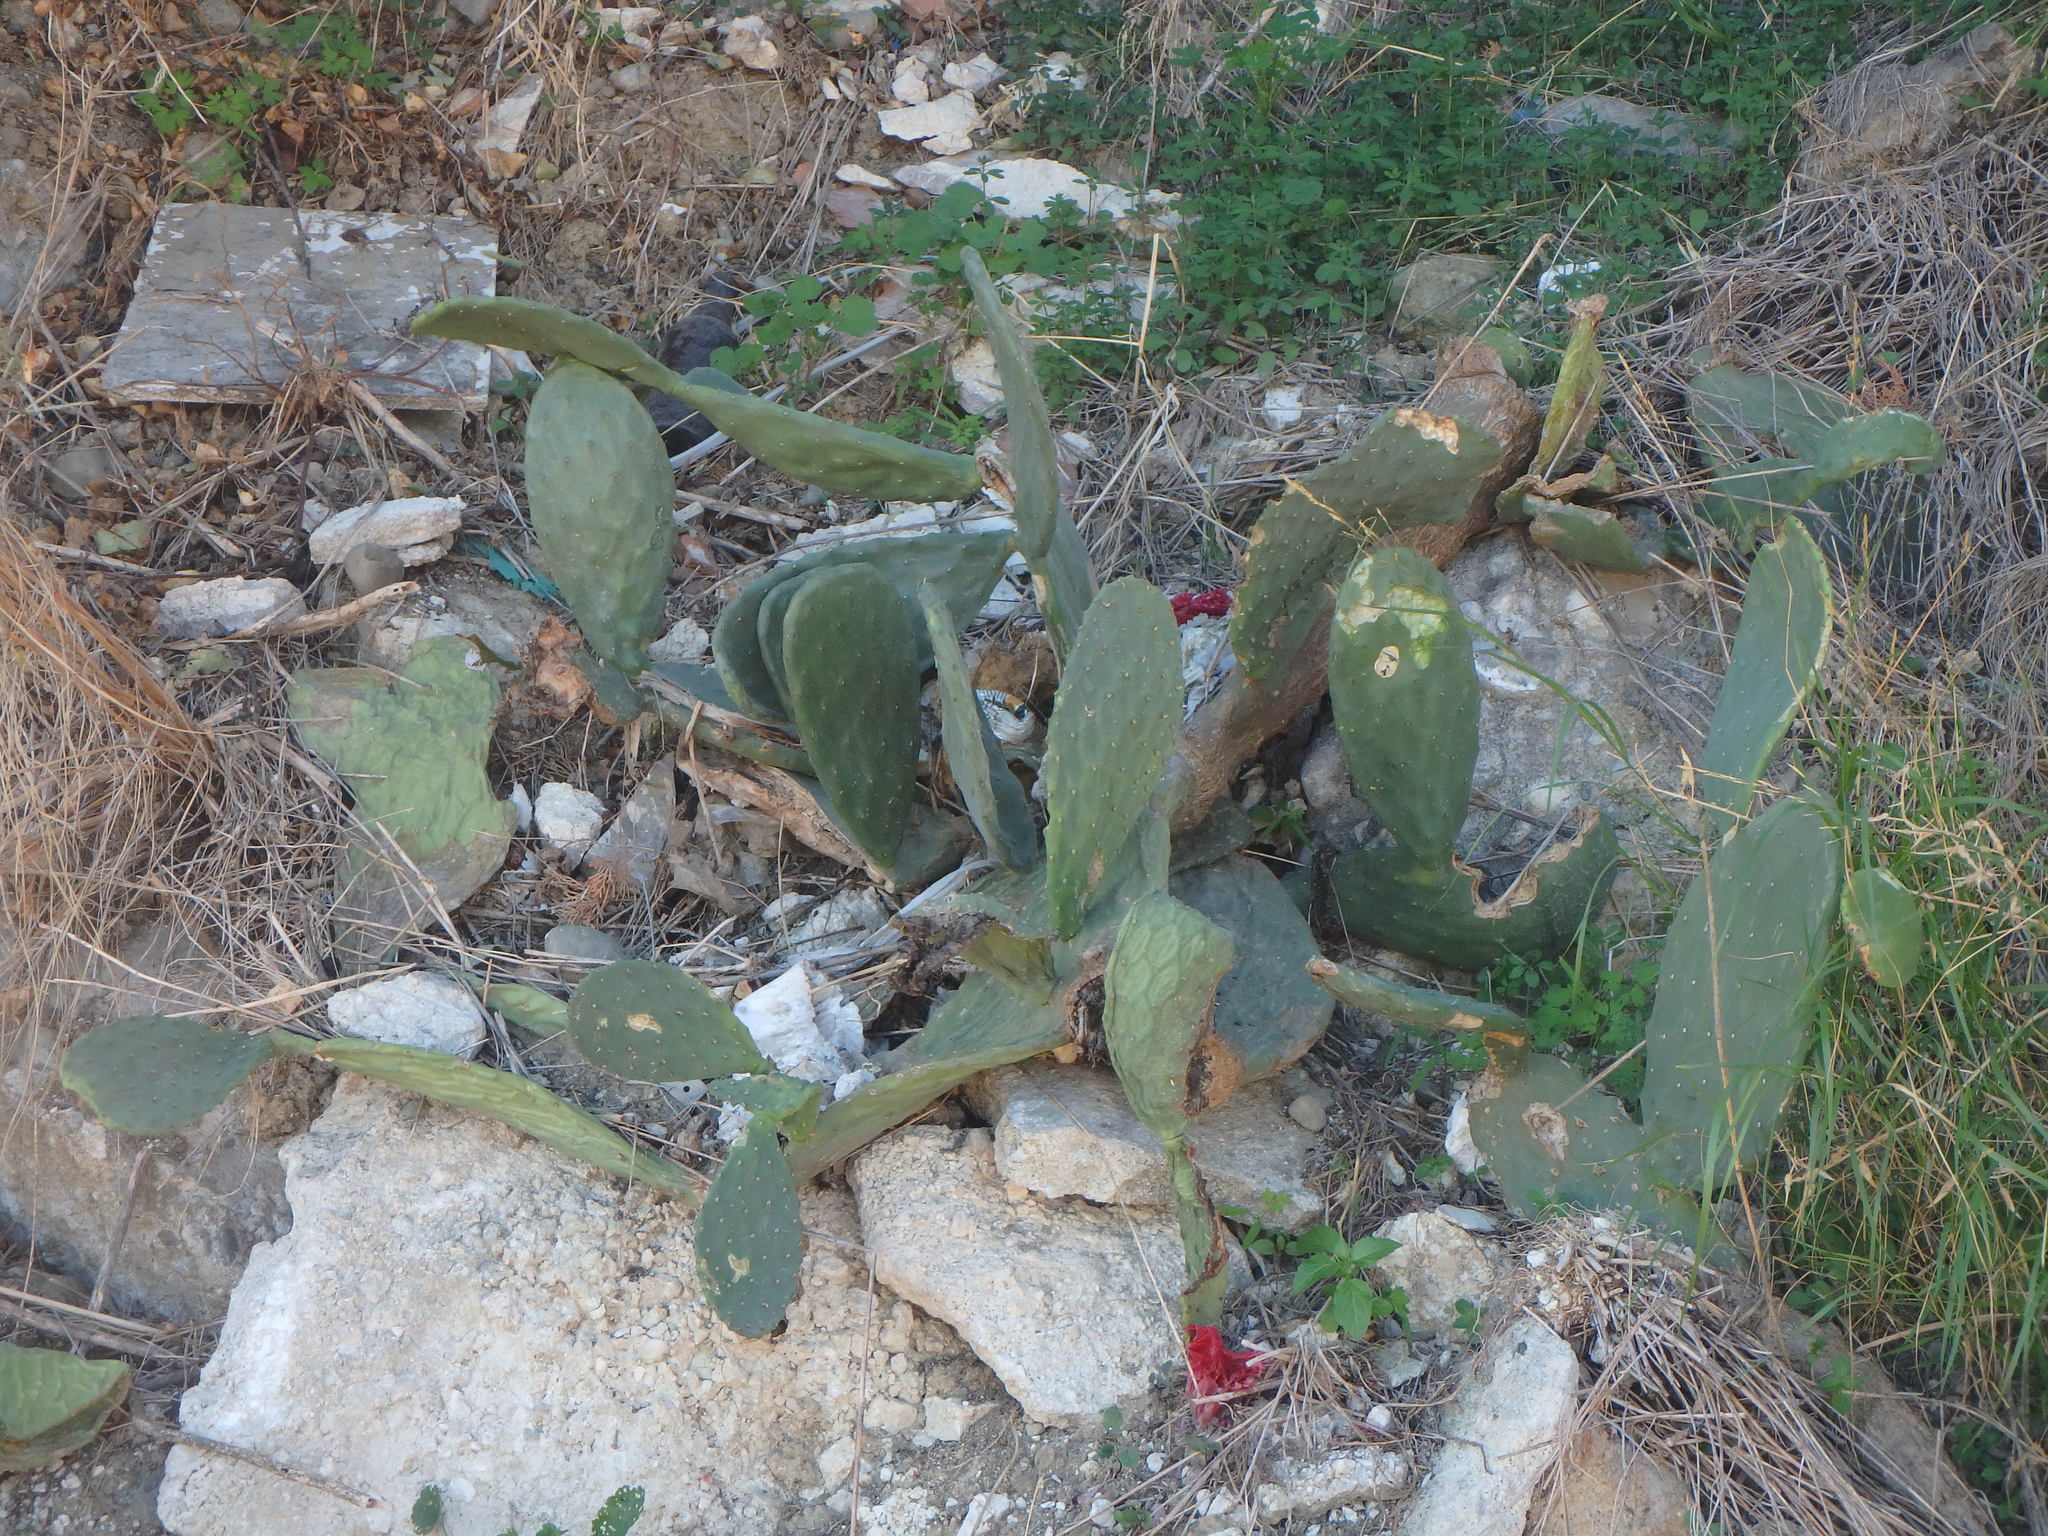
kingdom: Plantae
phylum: Tracheophyta
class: Magnoliopsida
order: Caryophyllales
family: Cactaceae
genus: Opuntia
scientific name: Opuntia ficus-indica
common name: Barbary fig
